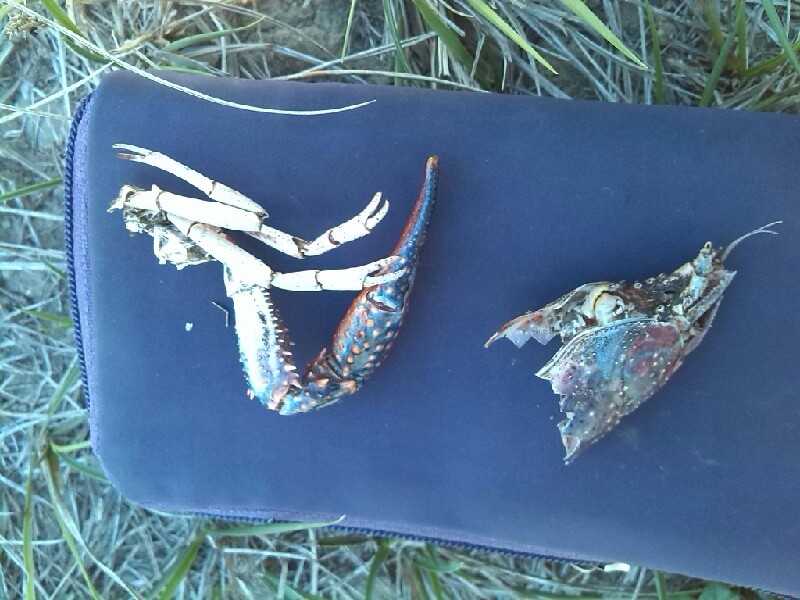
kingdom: Animalia
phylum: Arthropoda
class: Malacostraca
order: Decapoda
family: Cambaridae
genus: Procambarus
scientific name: Procambarus clarkii
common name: Red swamp crayfish
